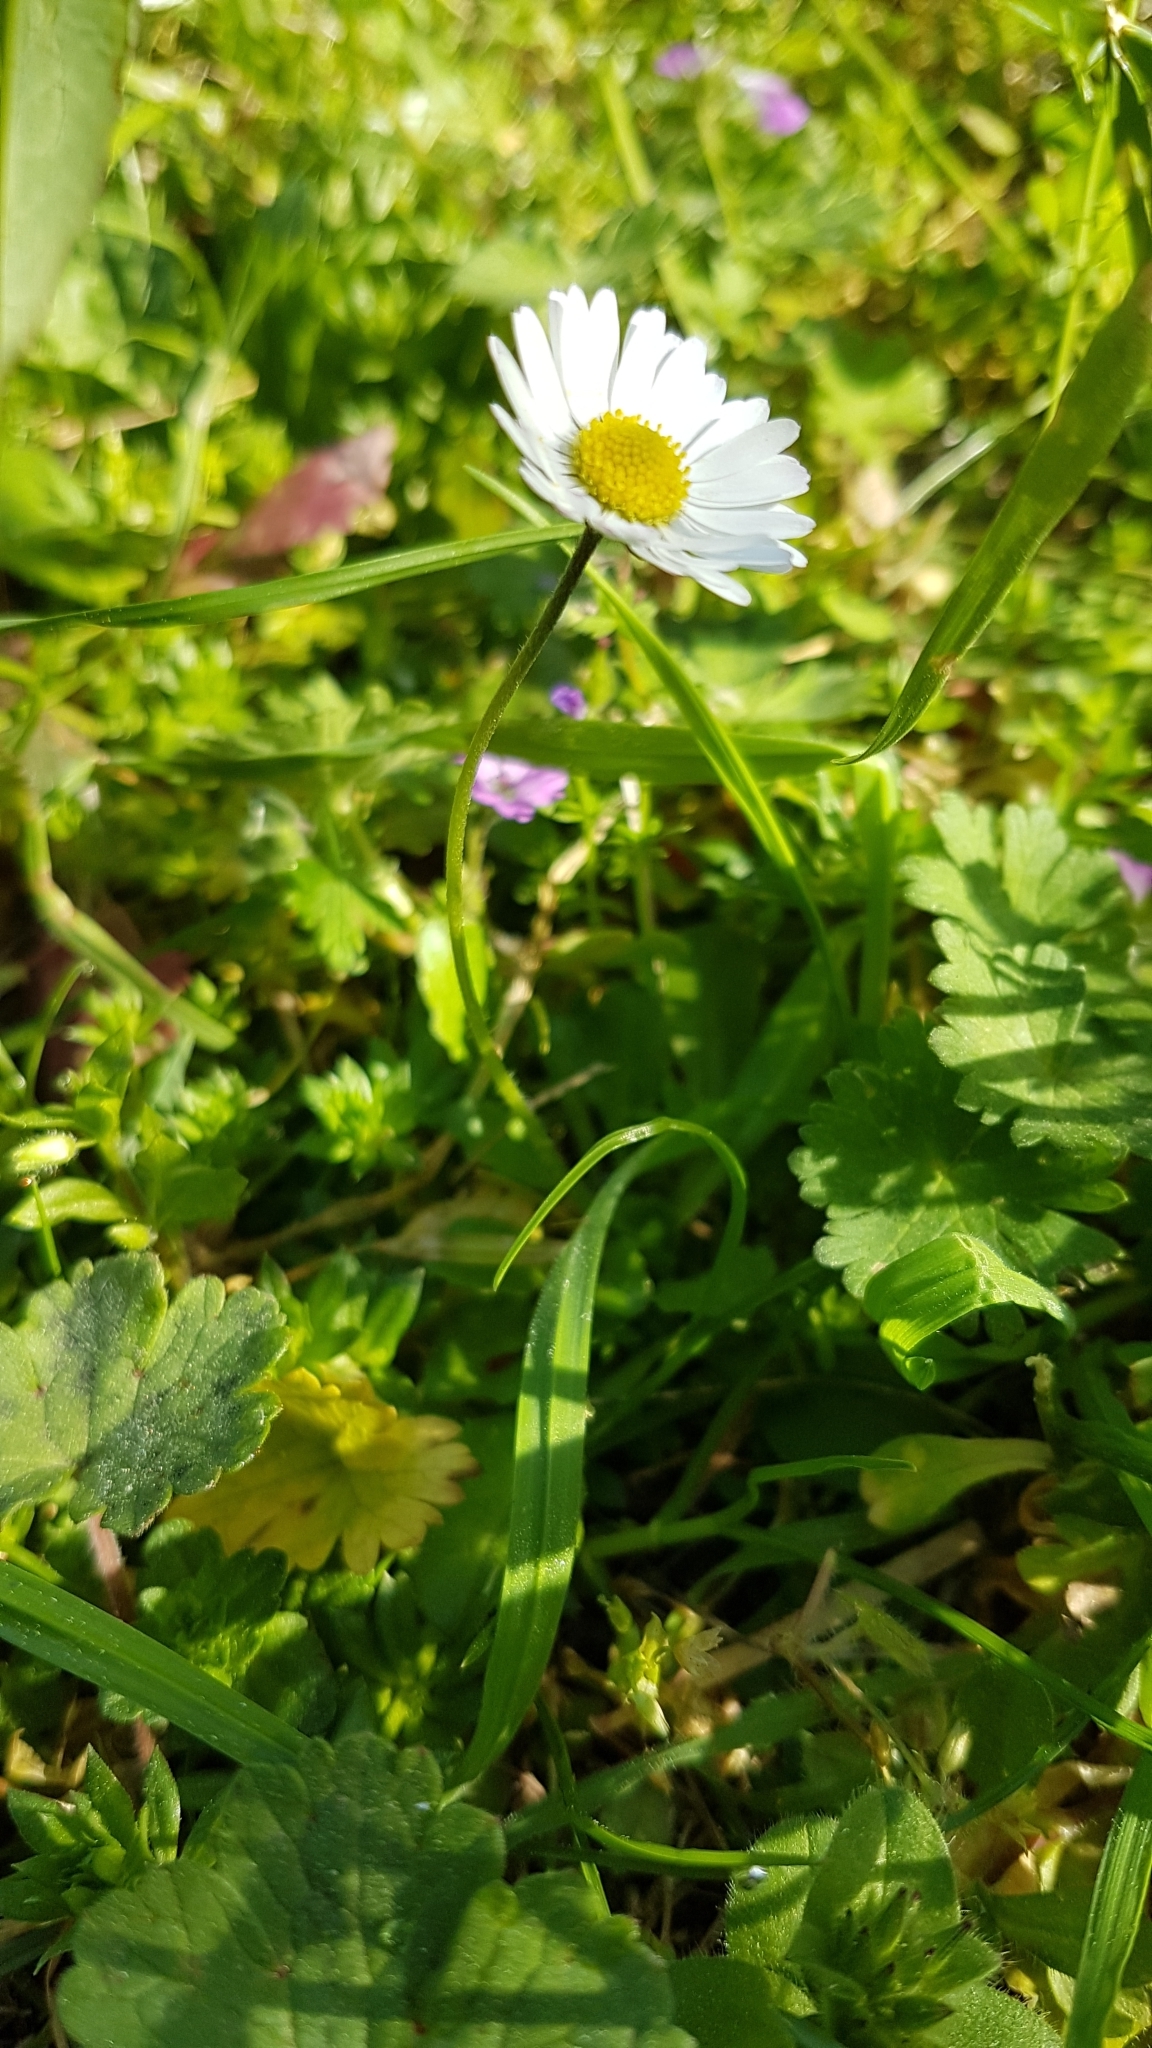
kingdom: Plantae
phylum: Tracheophyta
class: Magnoliopsida
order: Asterales
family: Asteraceae
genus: Bellis
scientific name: Bellis perennis
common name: Lawndaisy
